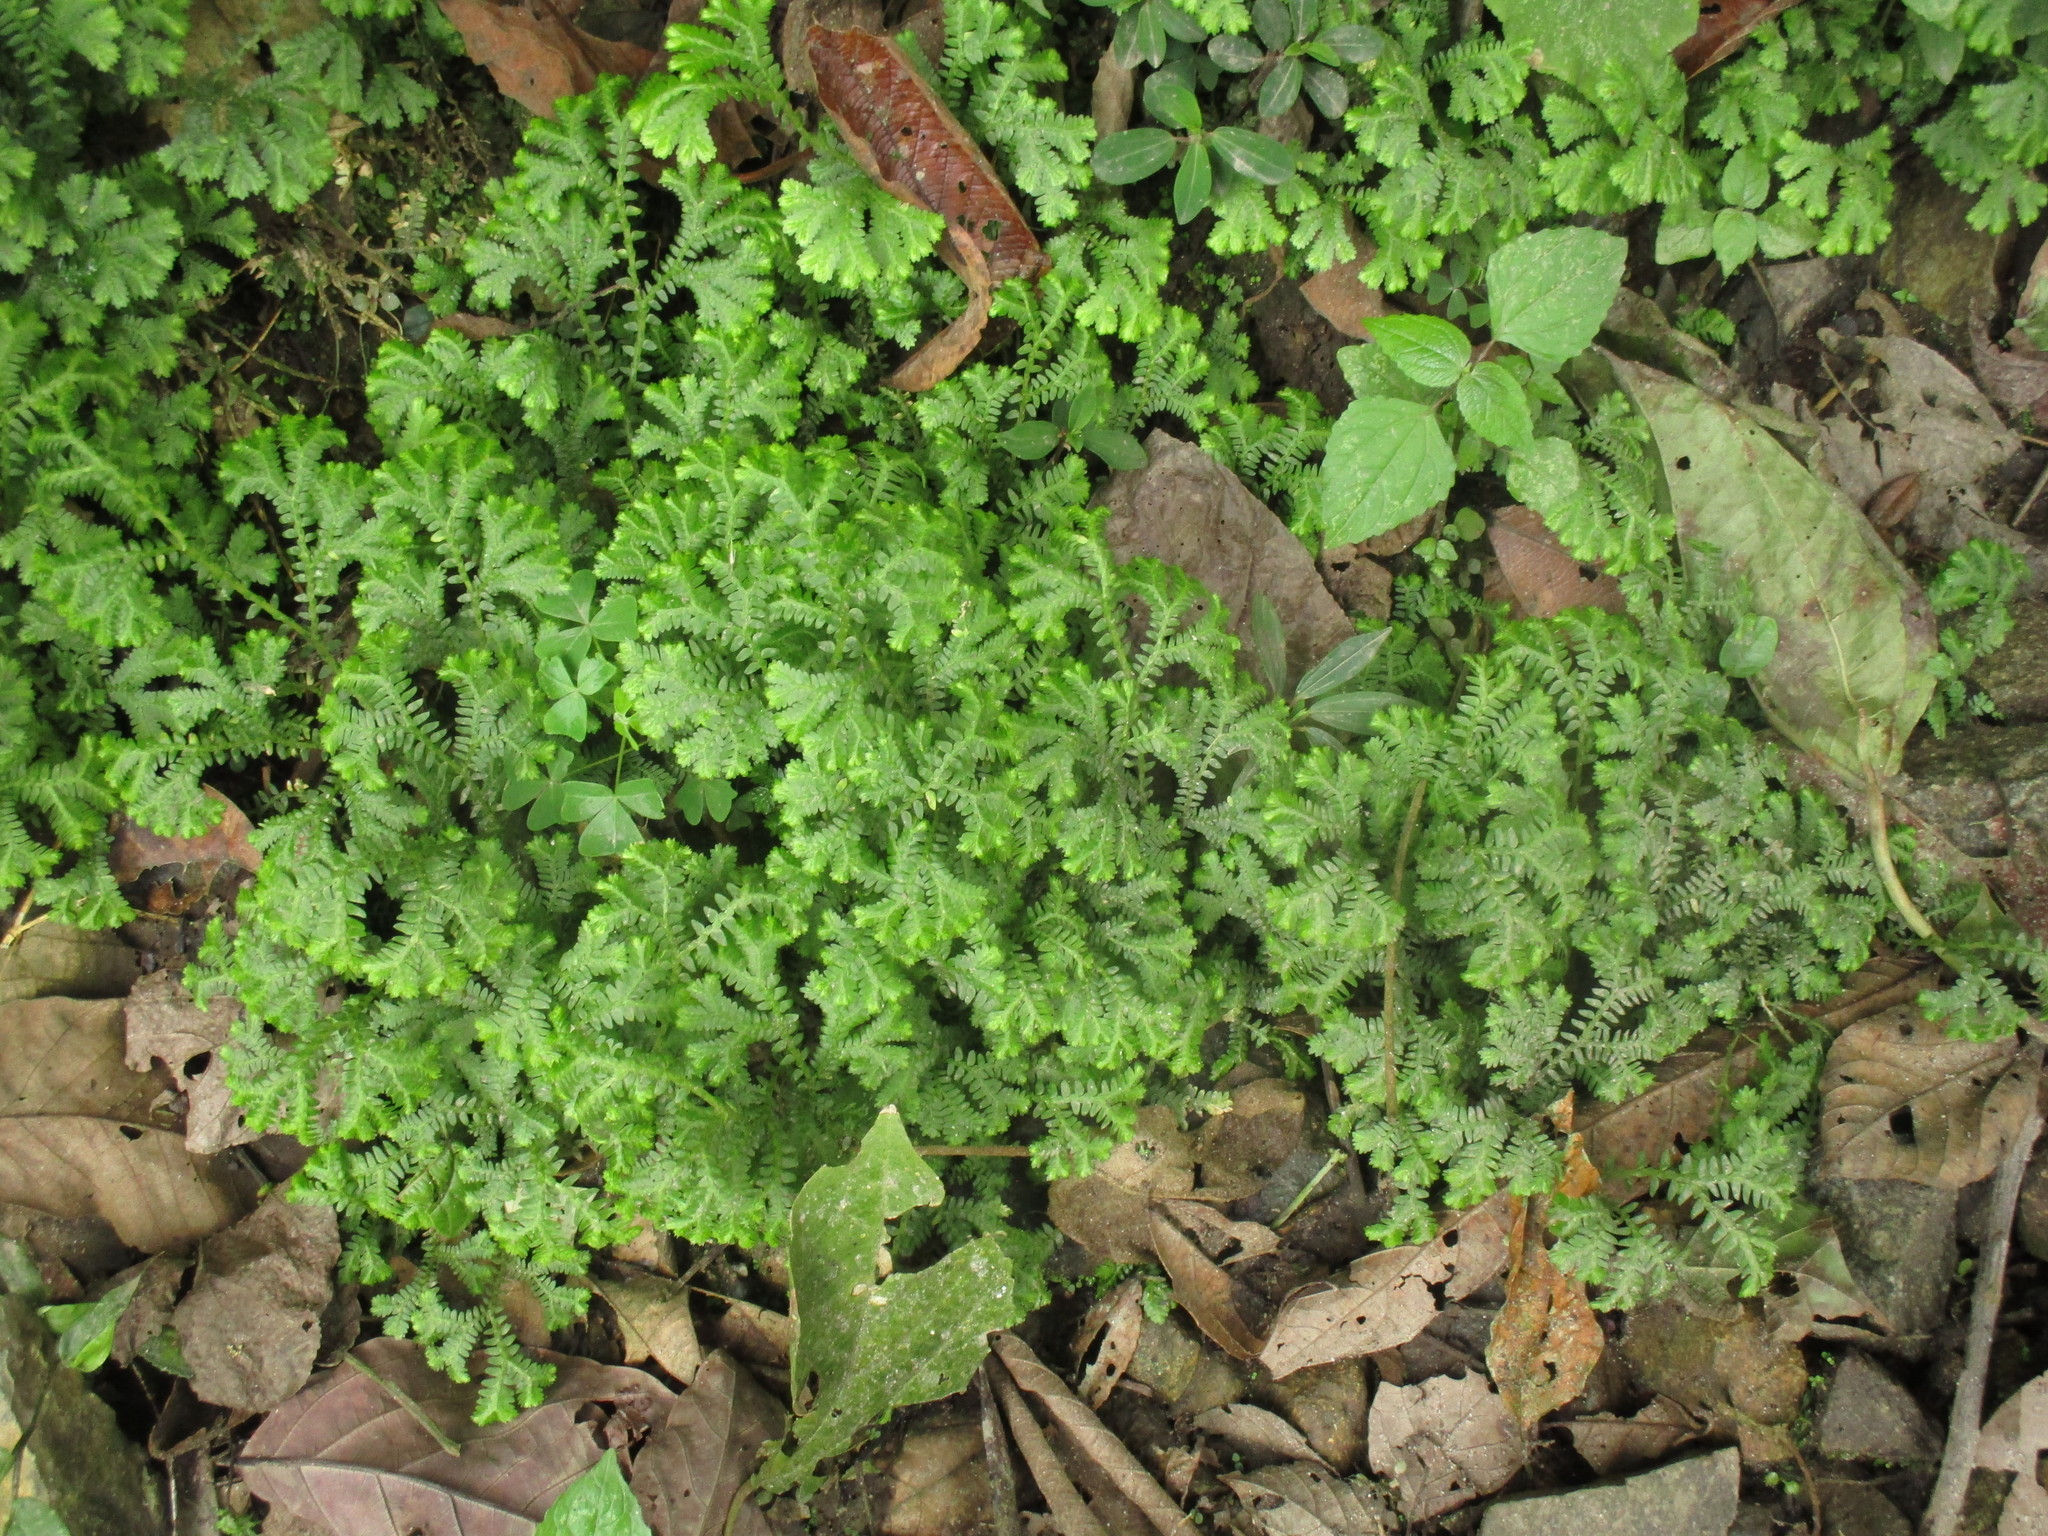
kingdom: Plantae
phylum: Tracheophyta
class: Lycopodiopsida
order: Selaginellales
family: Selaginellaceae
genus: Selaginella
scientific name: Selaginella kraussiana
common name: Krauss' spikemoss
